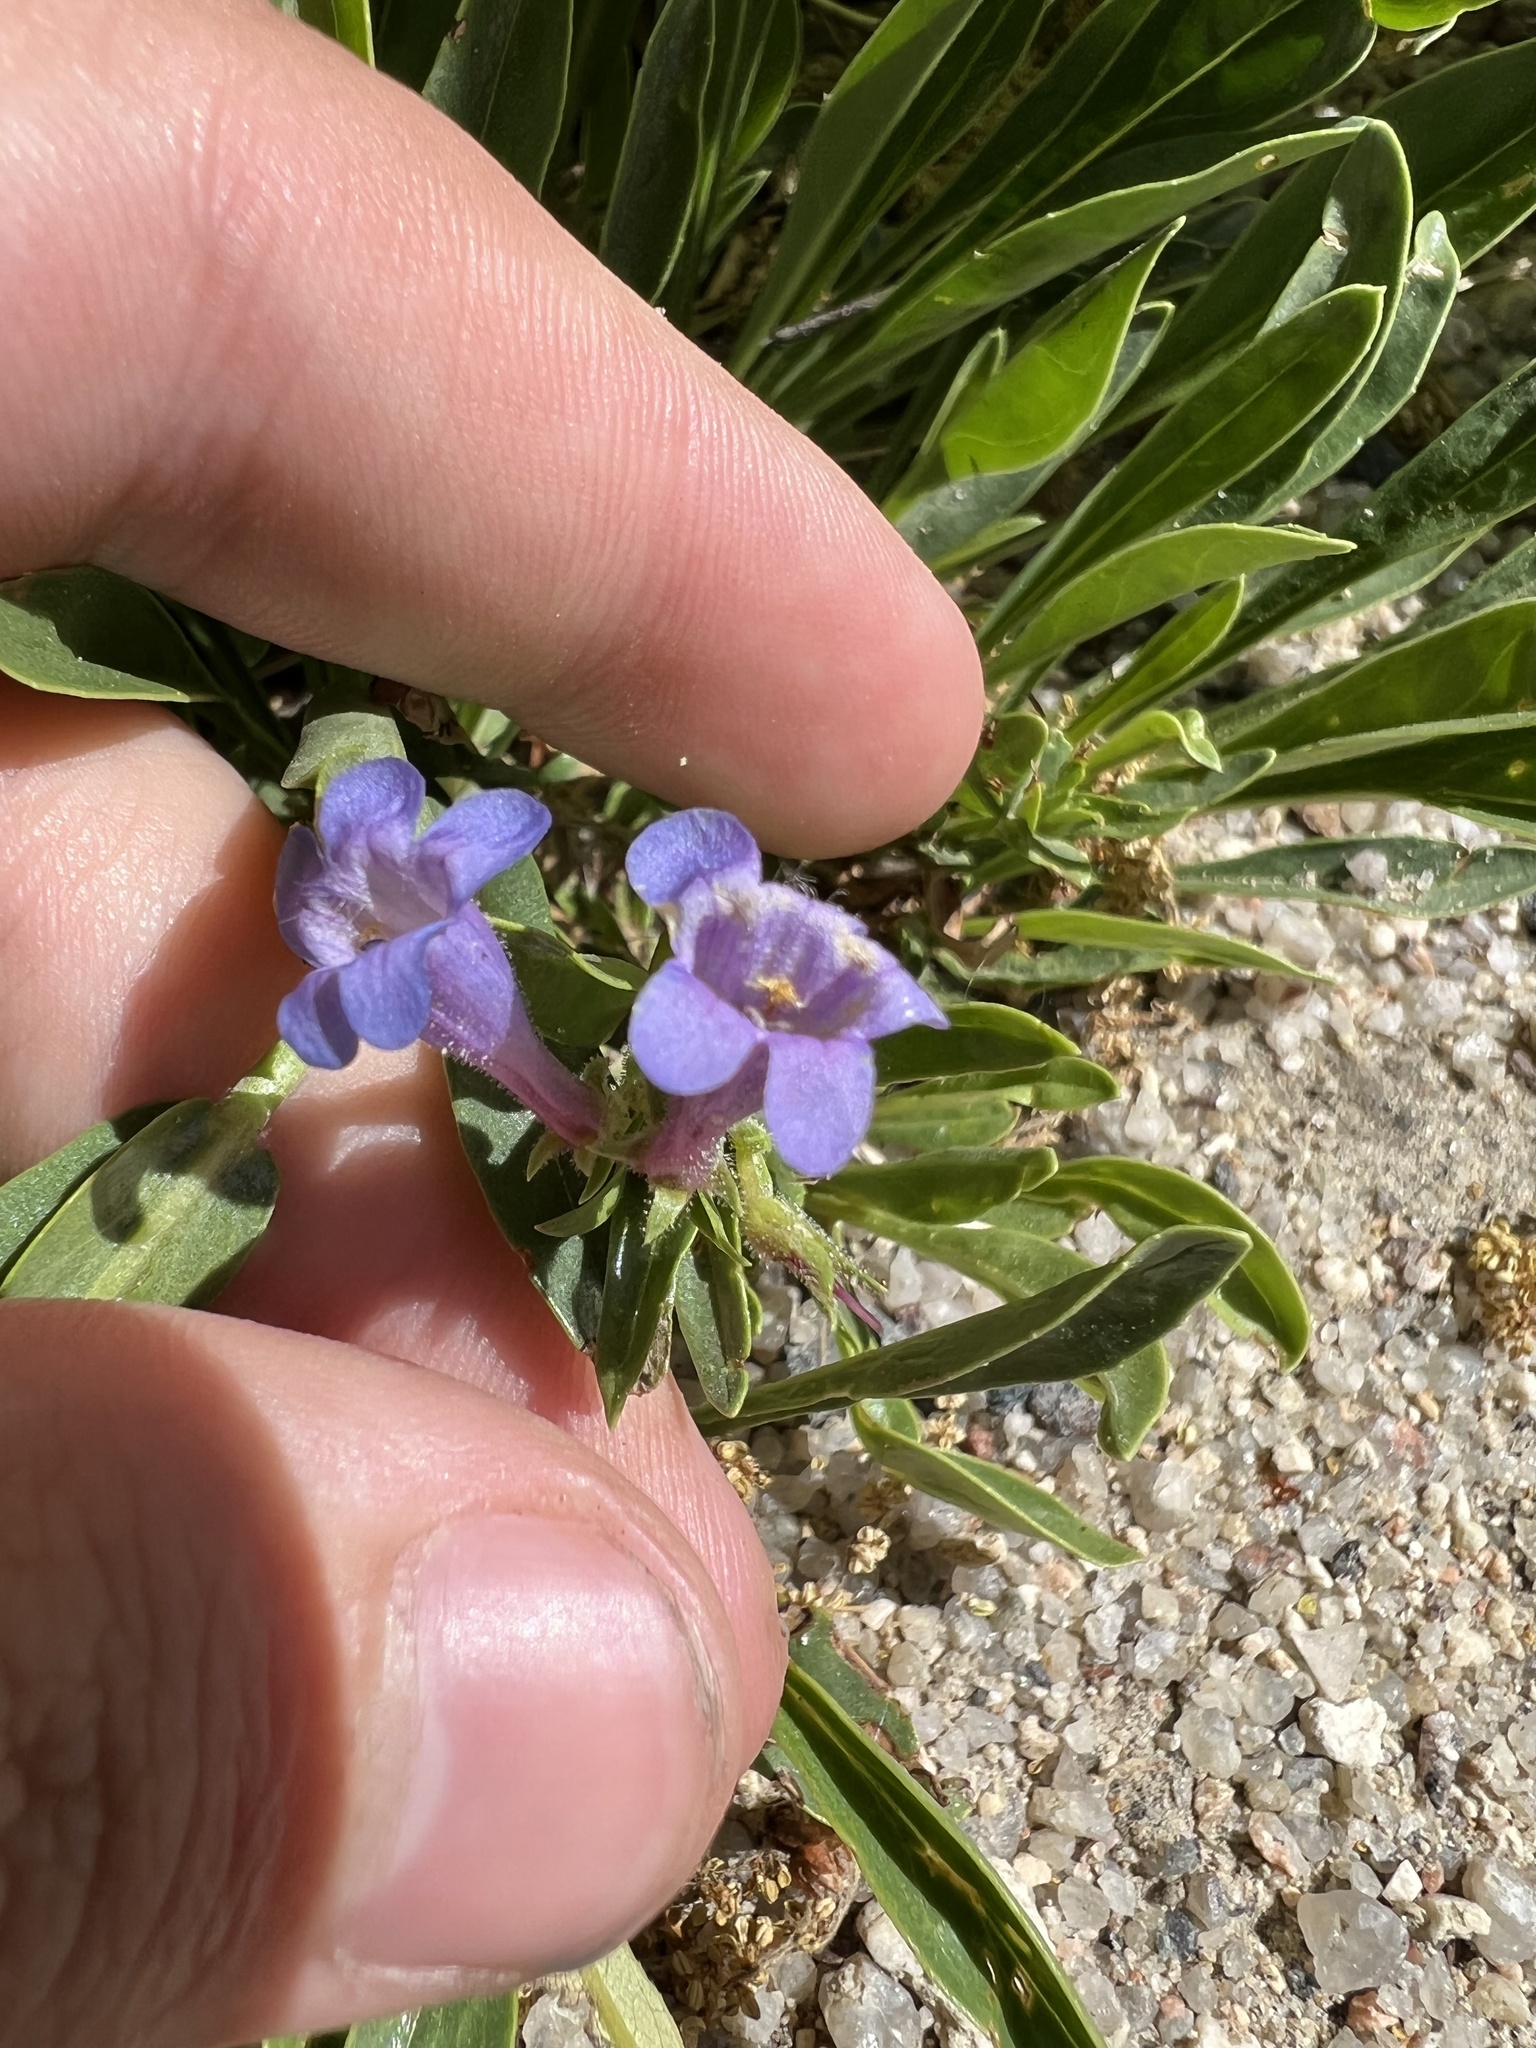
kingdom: Plantae
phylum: Tracheophyta
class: Magnoliopsida
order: Lamiales
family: Plantaginaceae
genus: Penstemon
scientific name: Penstemon virens
